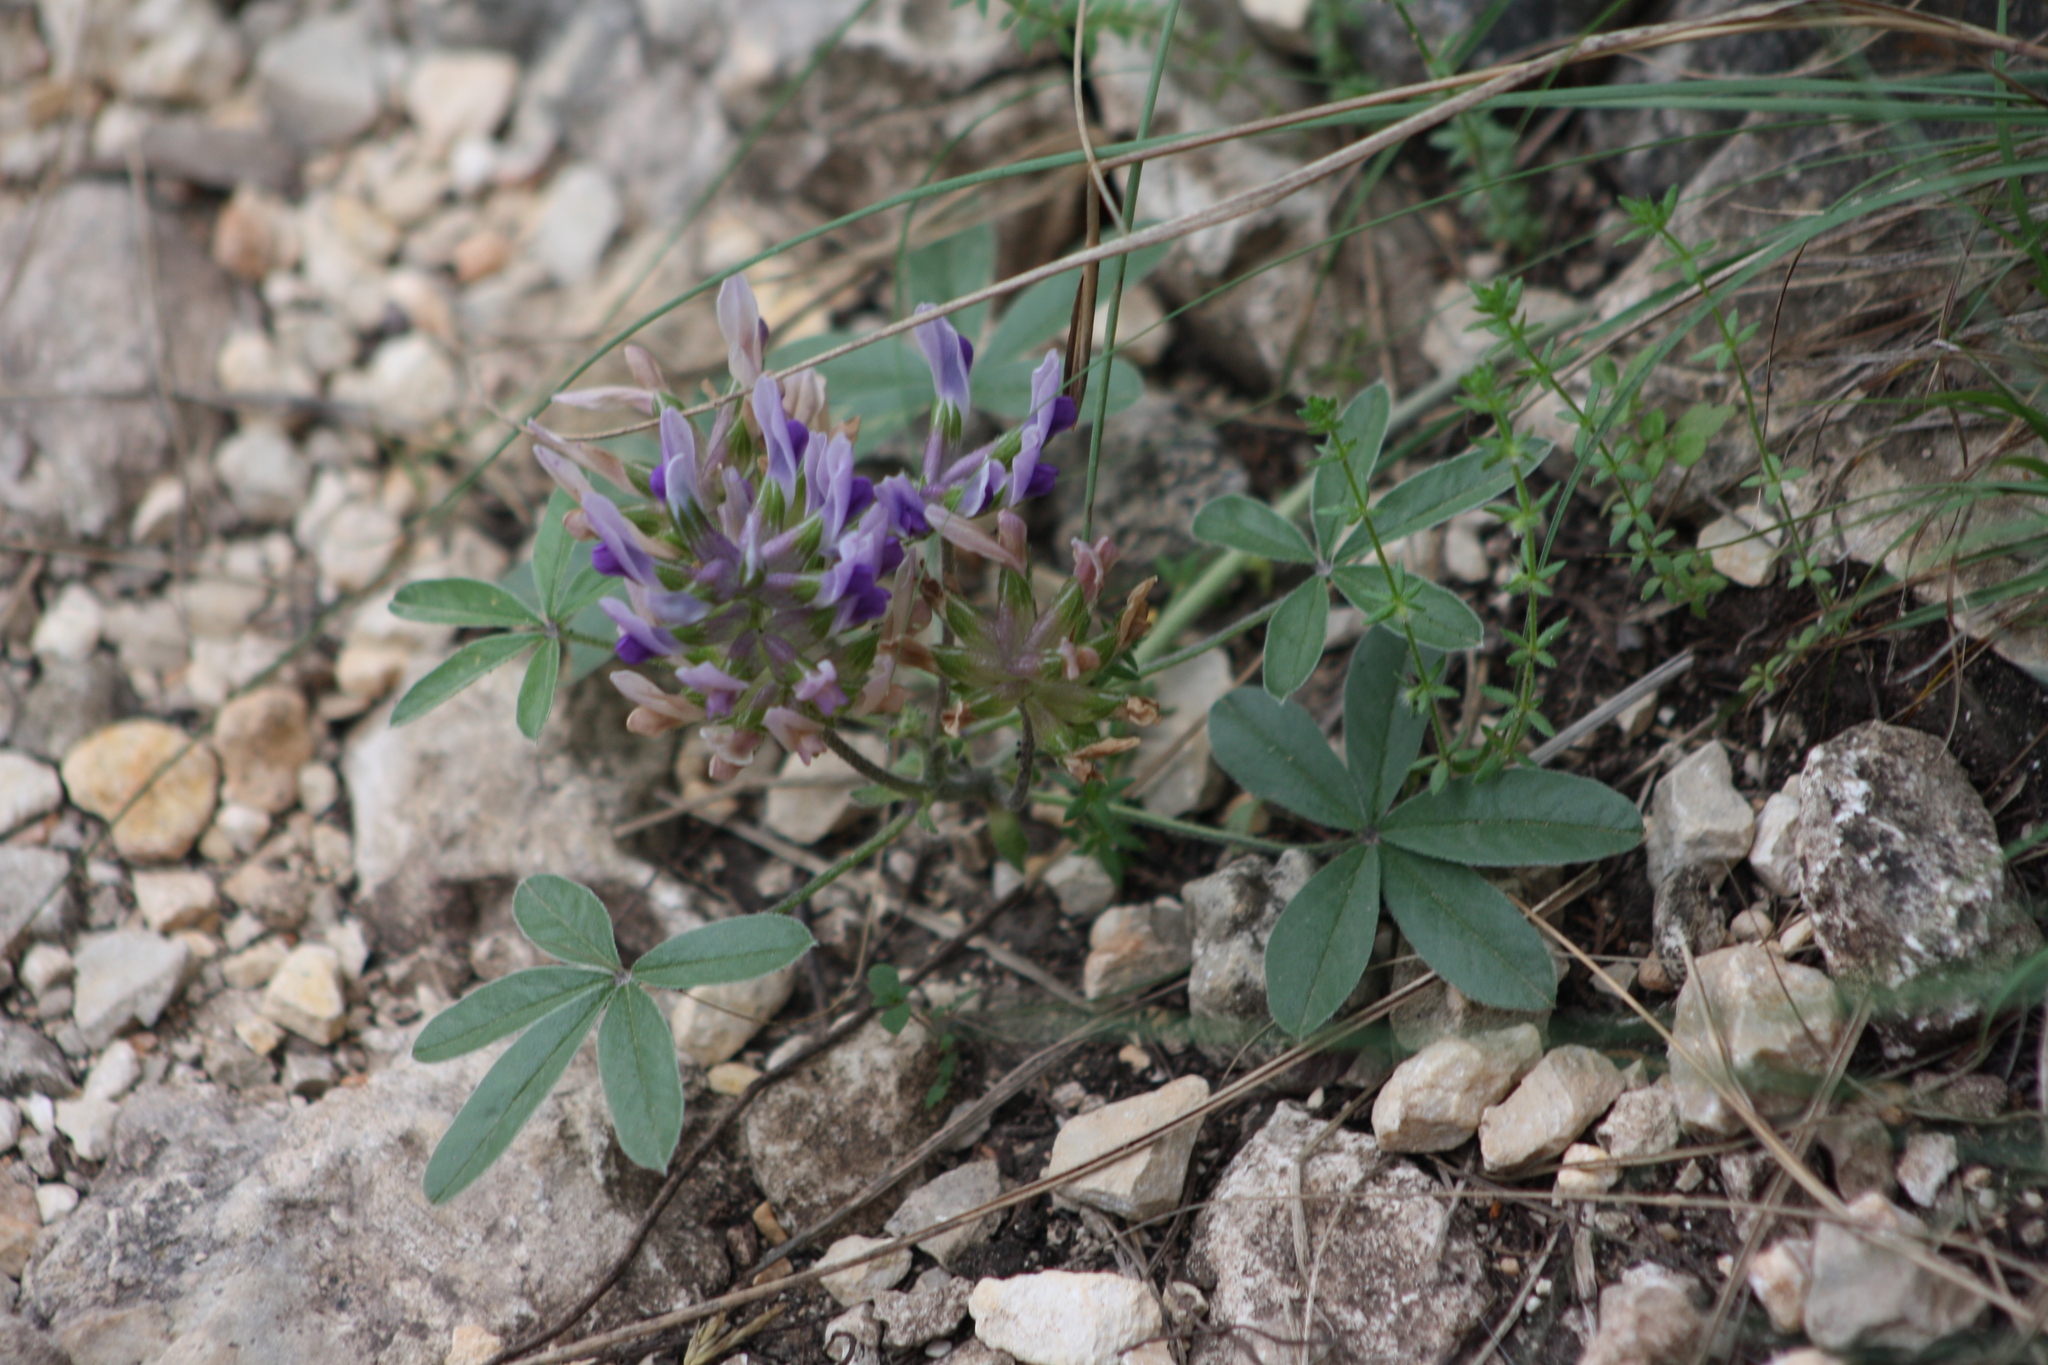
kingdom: Plantae
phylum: Tracheophyta
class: Magnoliopsida
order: Fabales
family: Fabaceae
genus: Pediomelum
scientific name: Pediomelum latestipulatum
